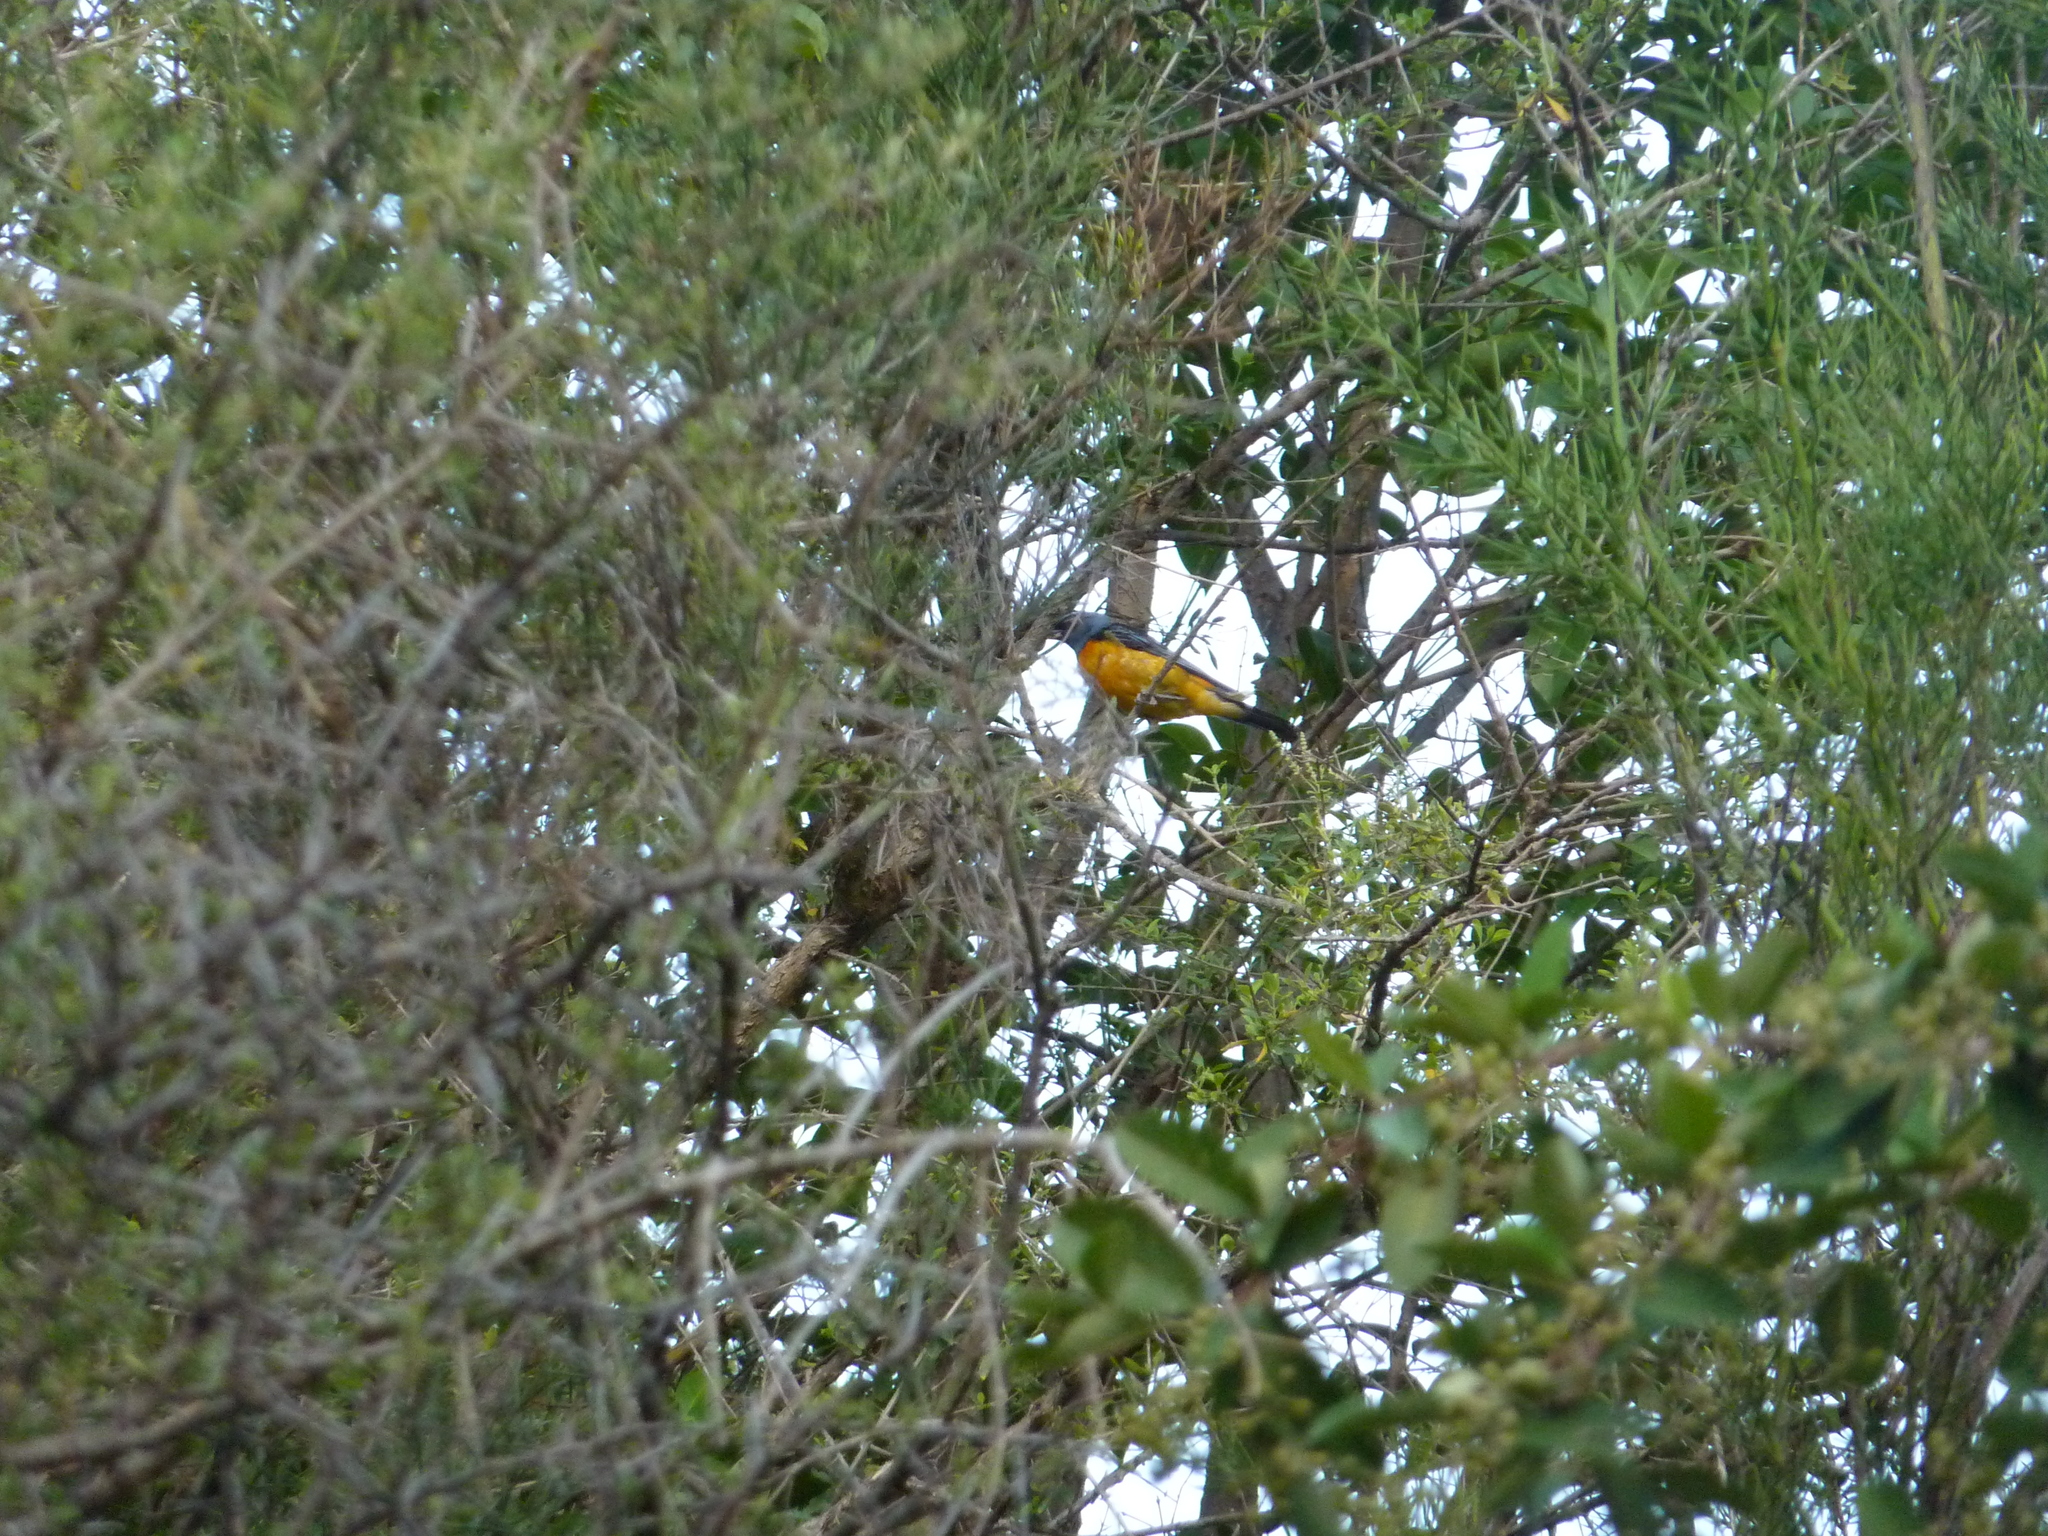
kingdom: Animalia
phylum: Chordata
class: Aves
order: Passeriformes
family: Thraupidae
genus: Rauenia
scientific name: Rauenia bonariensis
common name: Blue-and-yellow tanager
